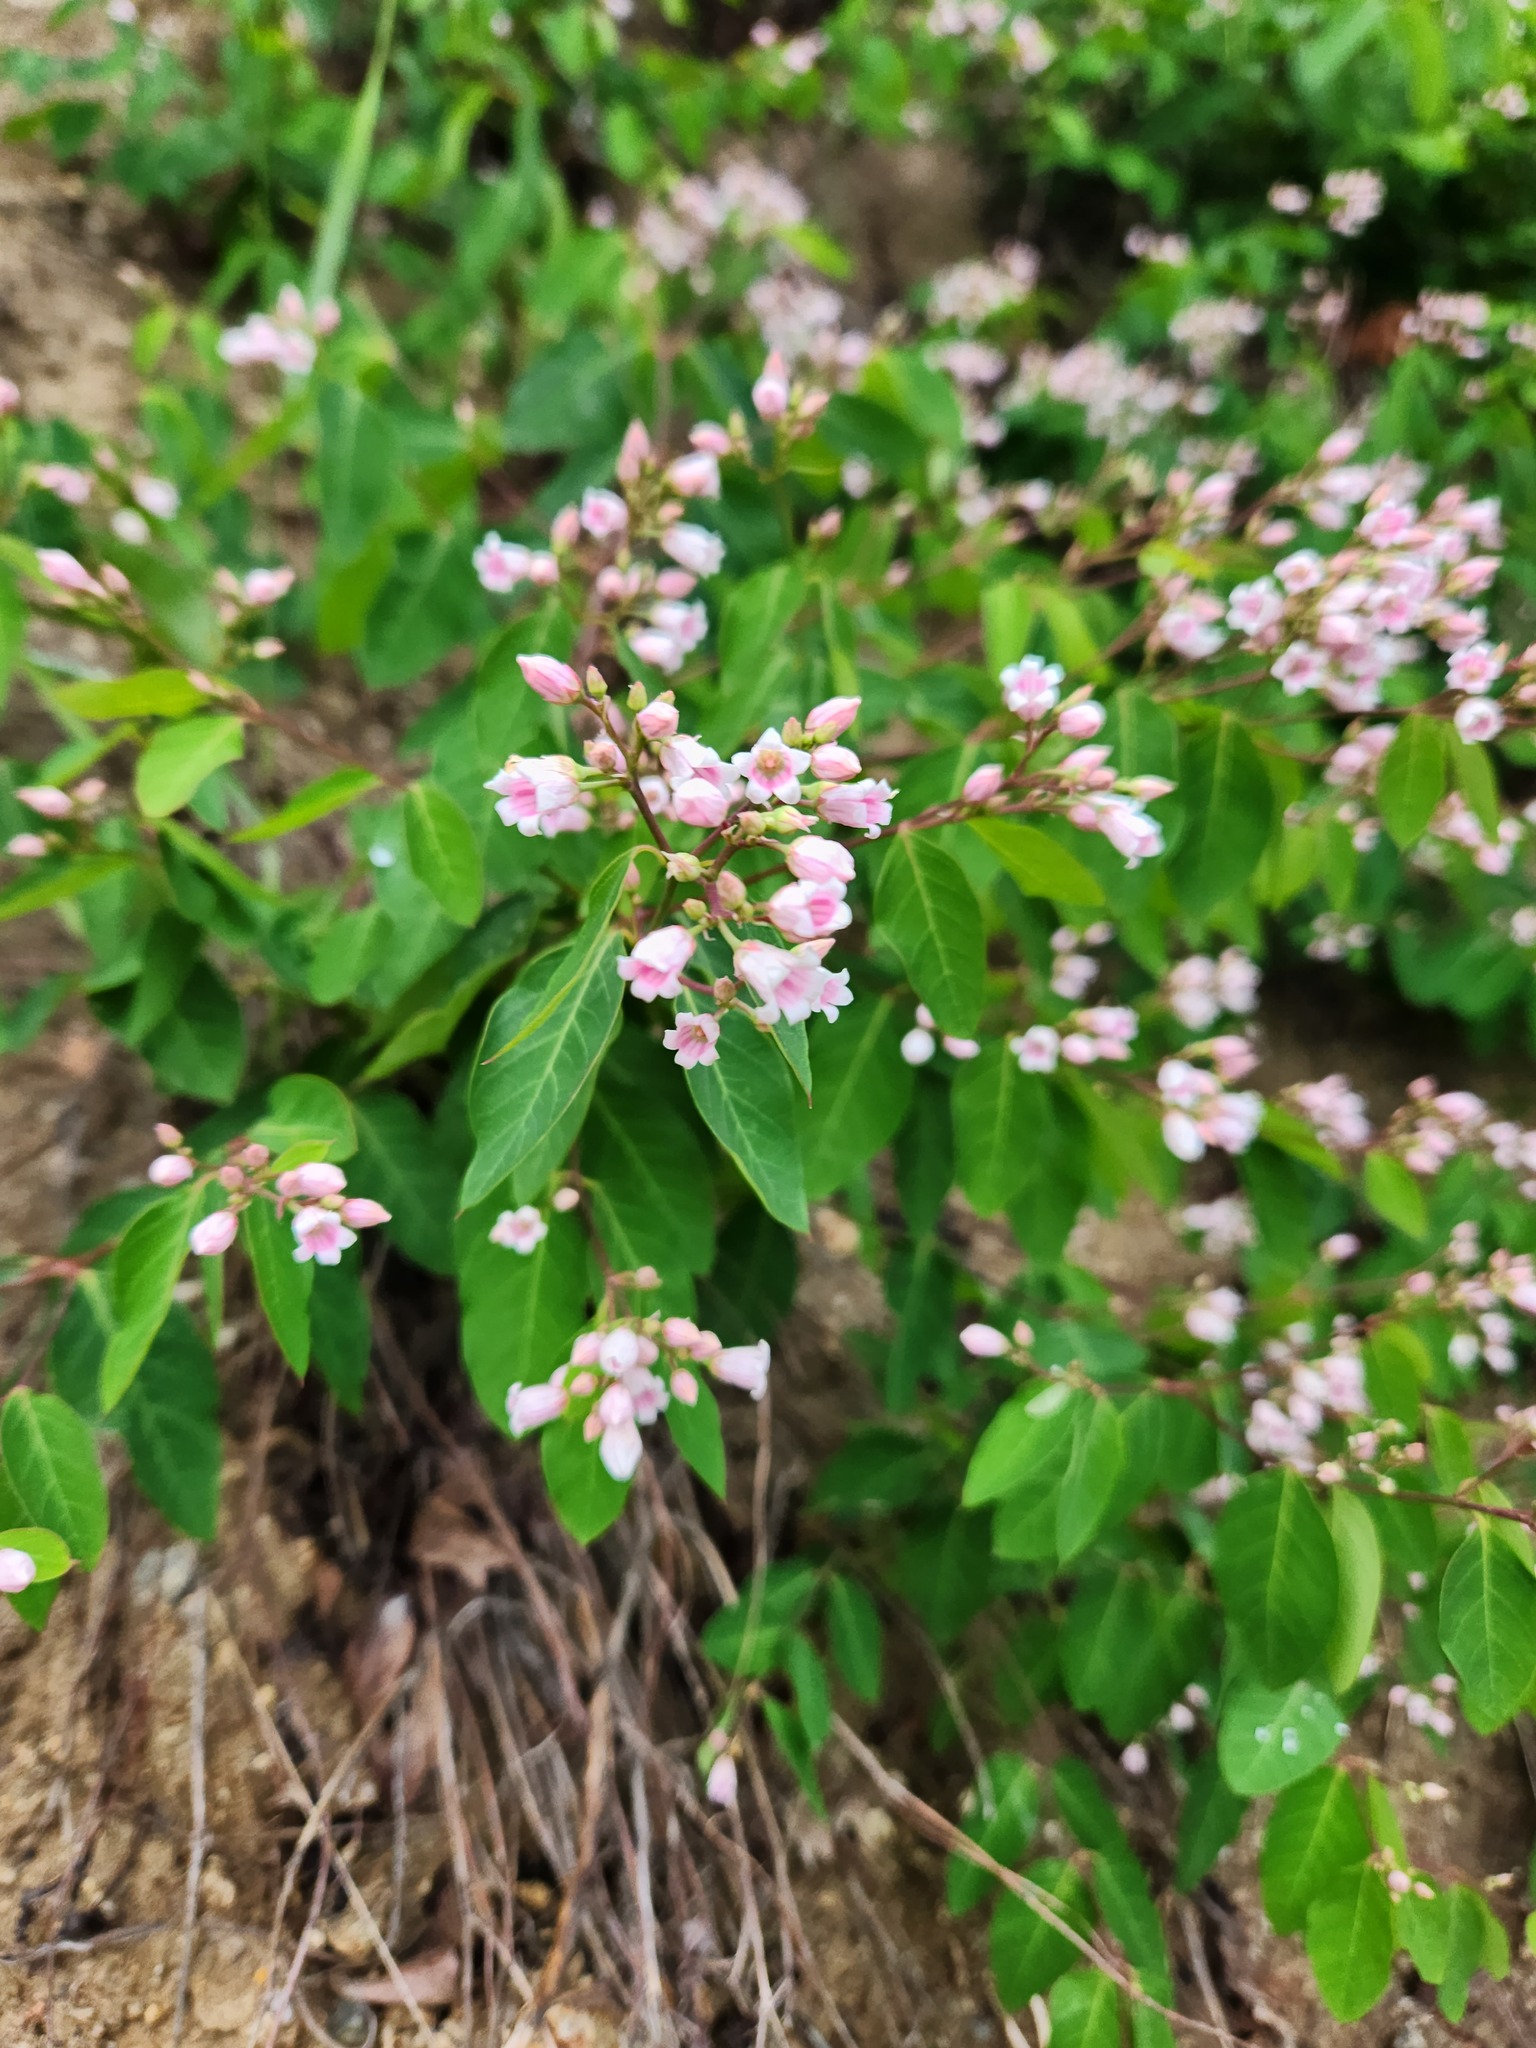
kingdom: Plantae
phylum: Tracheophyta
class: Magnoliopsida
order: Gentianales
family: Apocynaceae
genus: Apocynum
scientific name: Apocynum androsaemifolium
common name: Spreading dogbane
